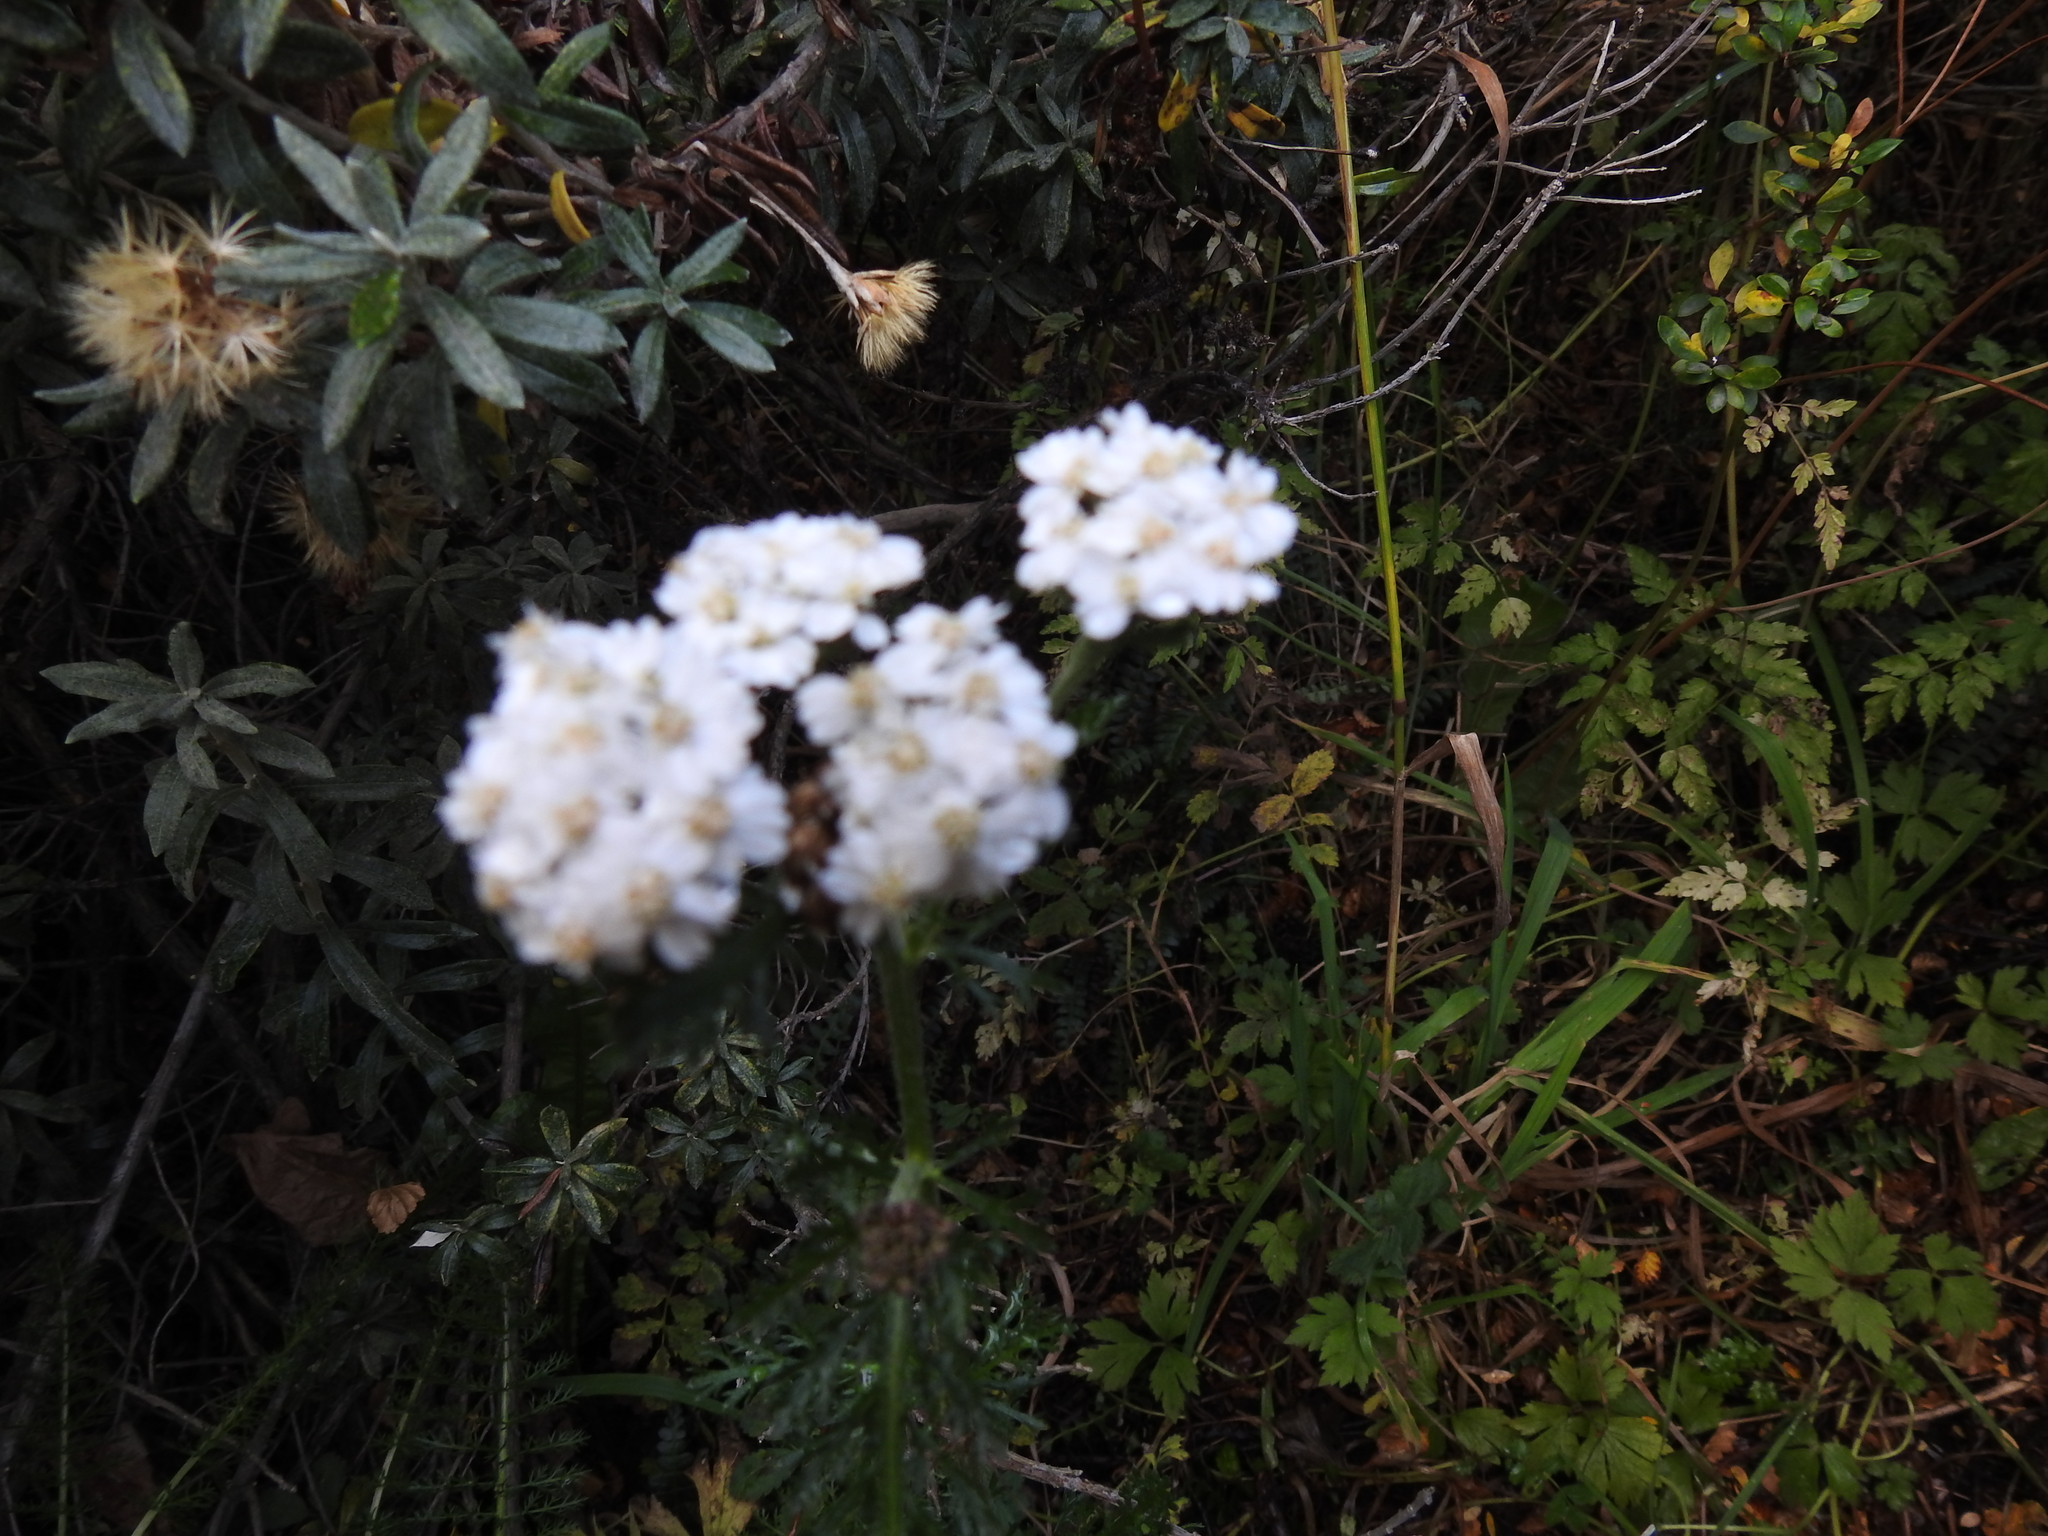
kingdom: Plantae
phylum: Tracheophyta
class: Magnoliopsida
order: Asterales
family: Asteraceae
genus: Achillea
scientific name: Achillea millefolium
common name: Yarrow
